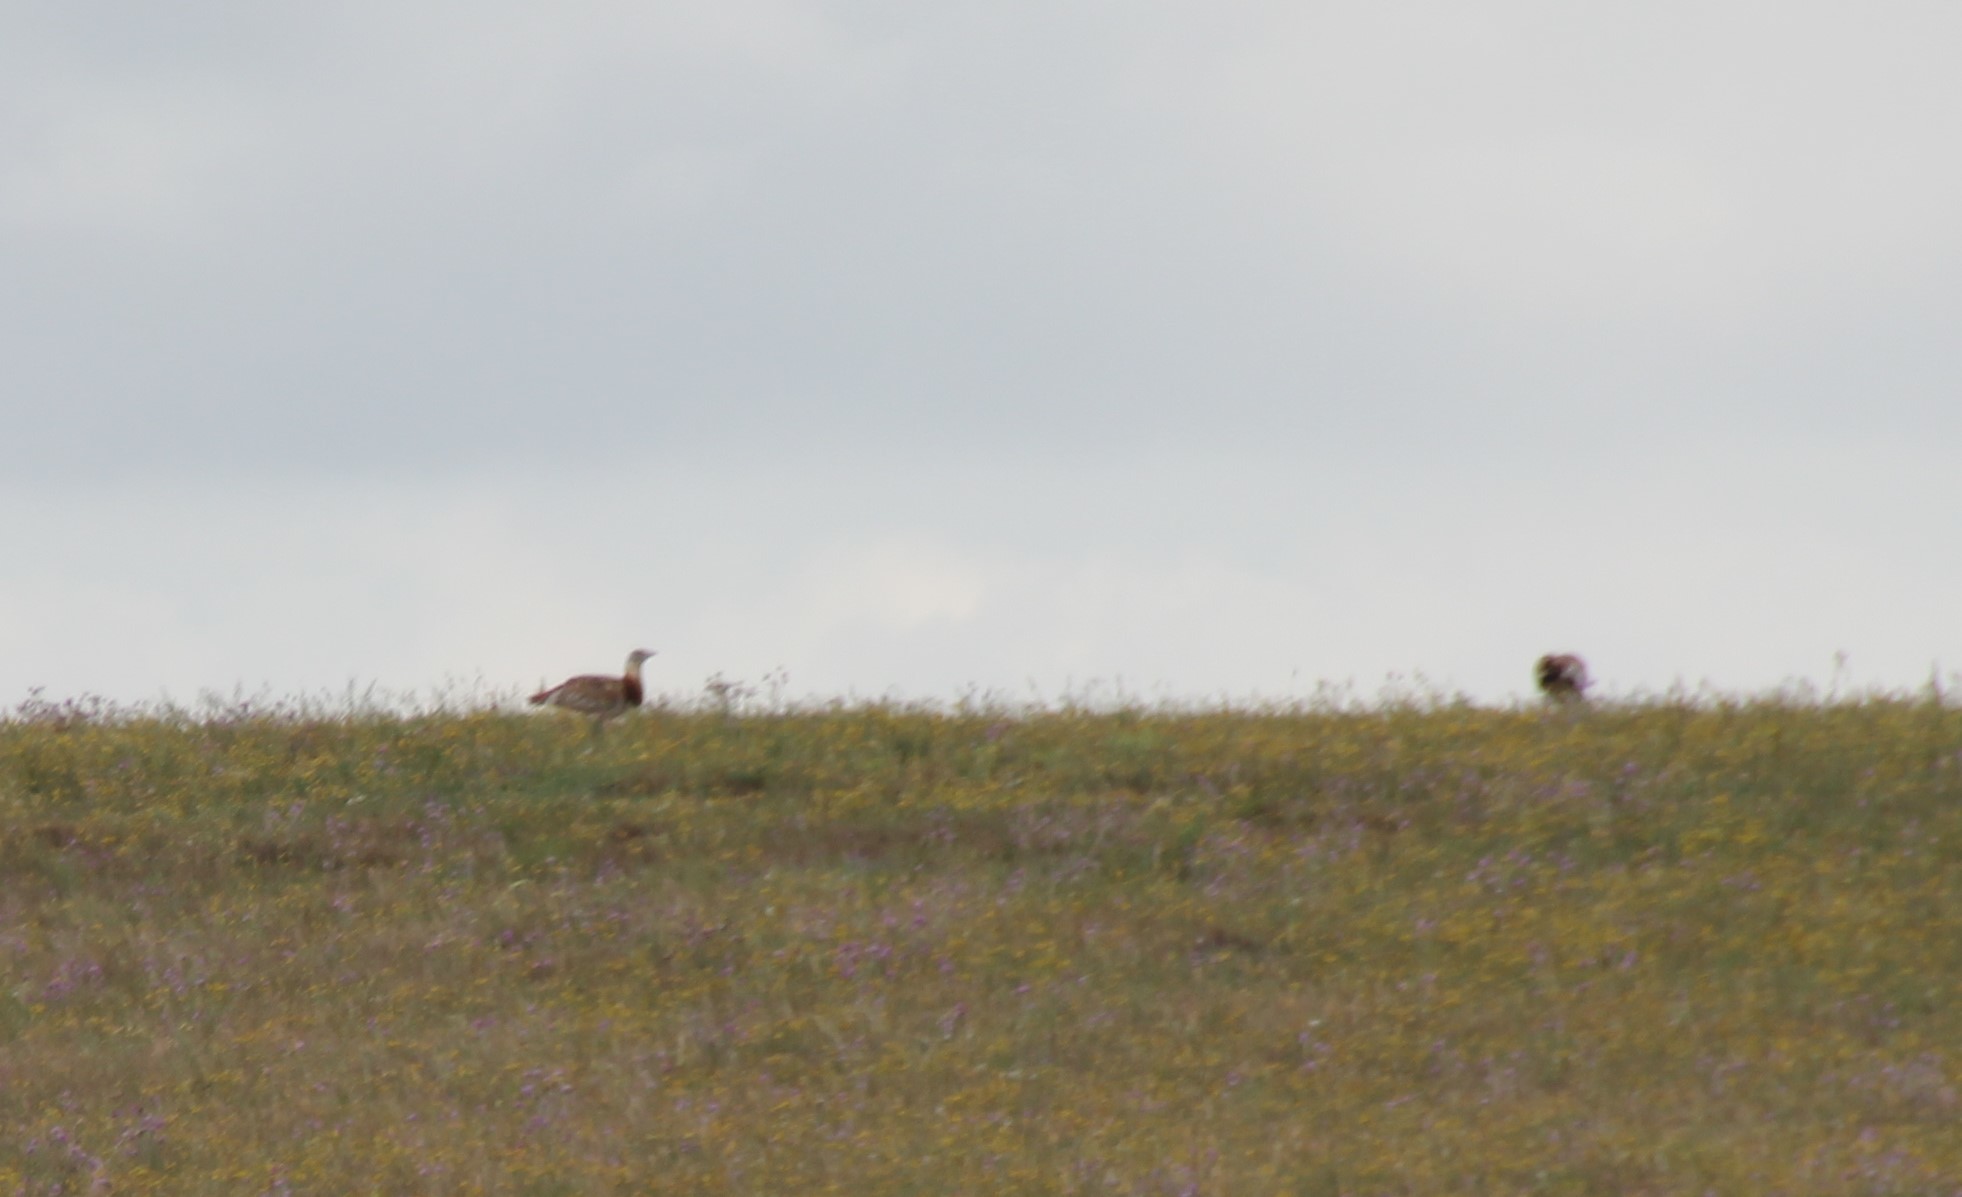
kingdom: Animalia
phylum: Chordata
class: Aves
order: Otidiformes
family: Otididae
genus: Otis
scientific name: Otis tarda
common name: Great bustard
